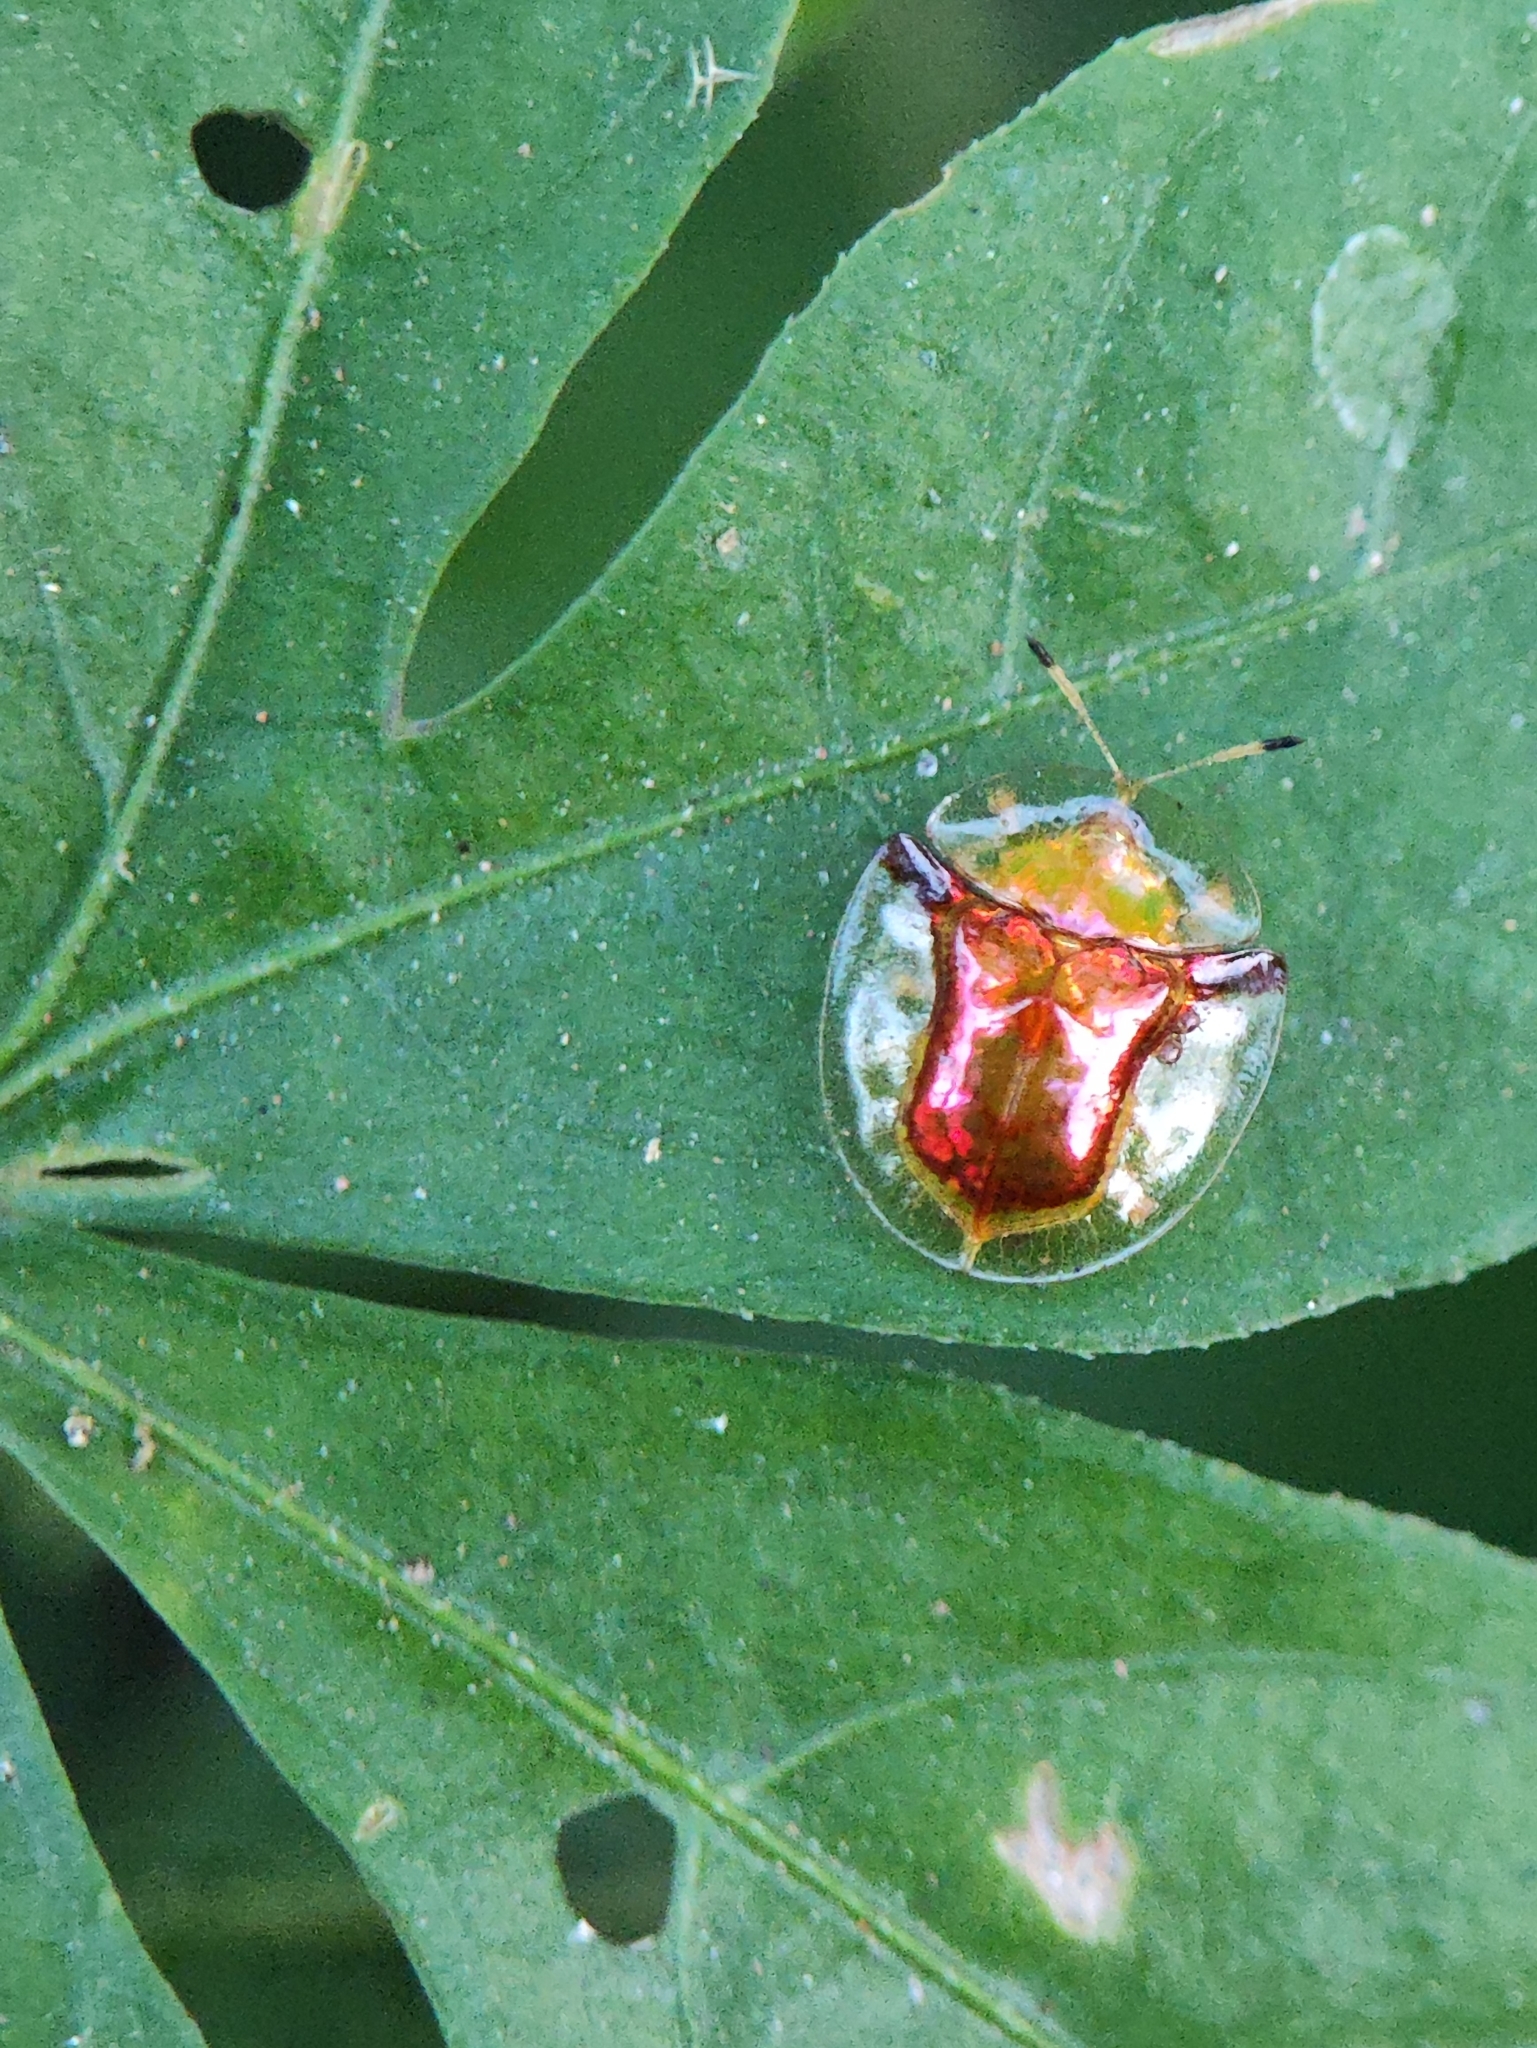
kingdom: Animalia
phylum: Arthropoda
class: Insecta
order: Coleoptera
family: Chrysomelidae
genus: Aspidimorpha
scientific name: Aspidimorpha furcata
